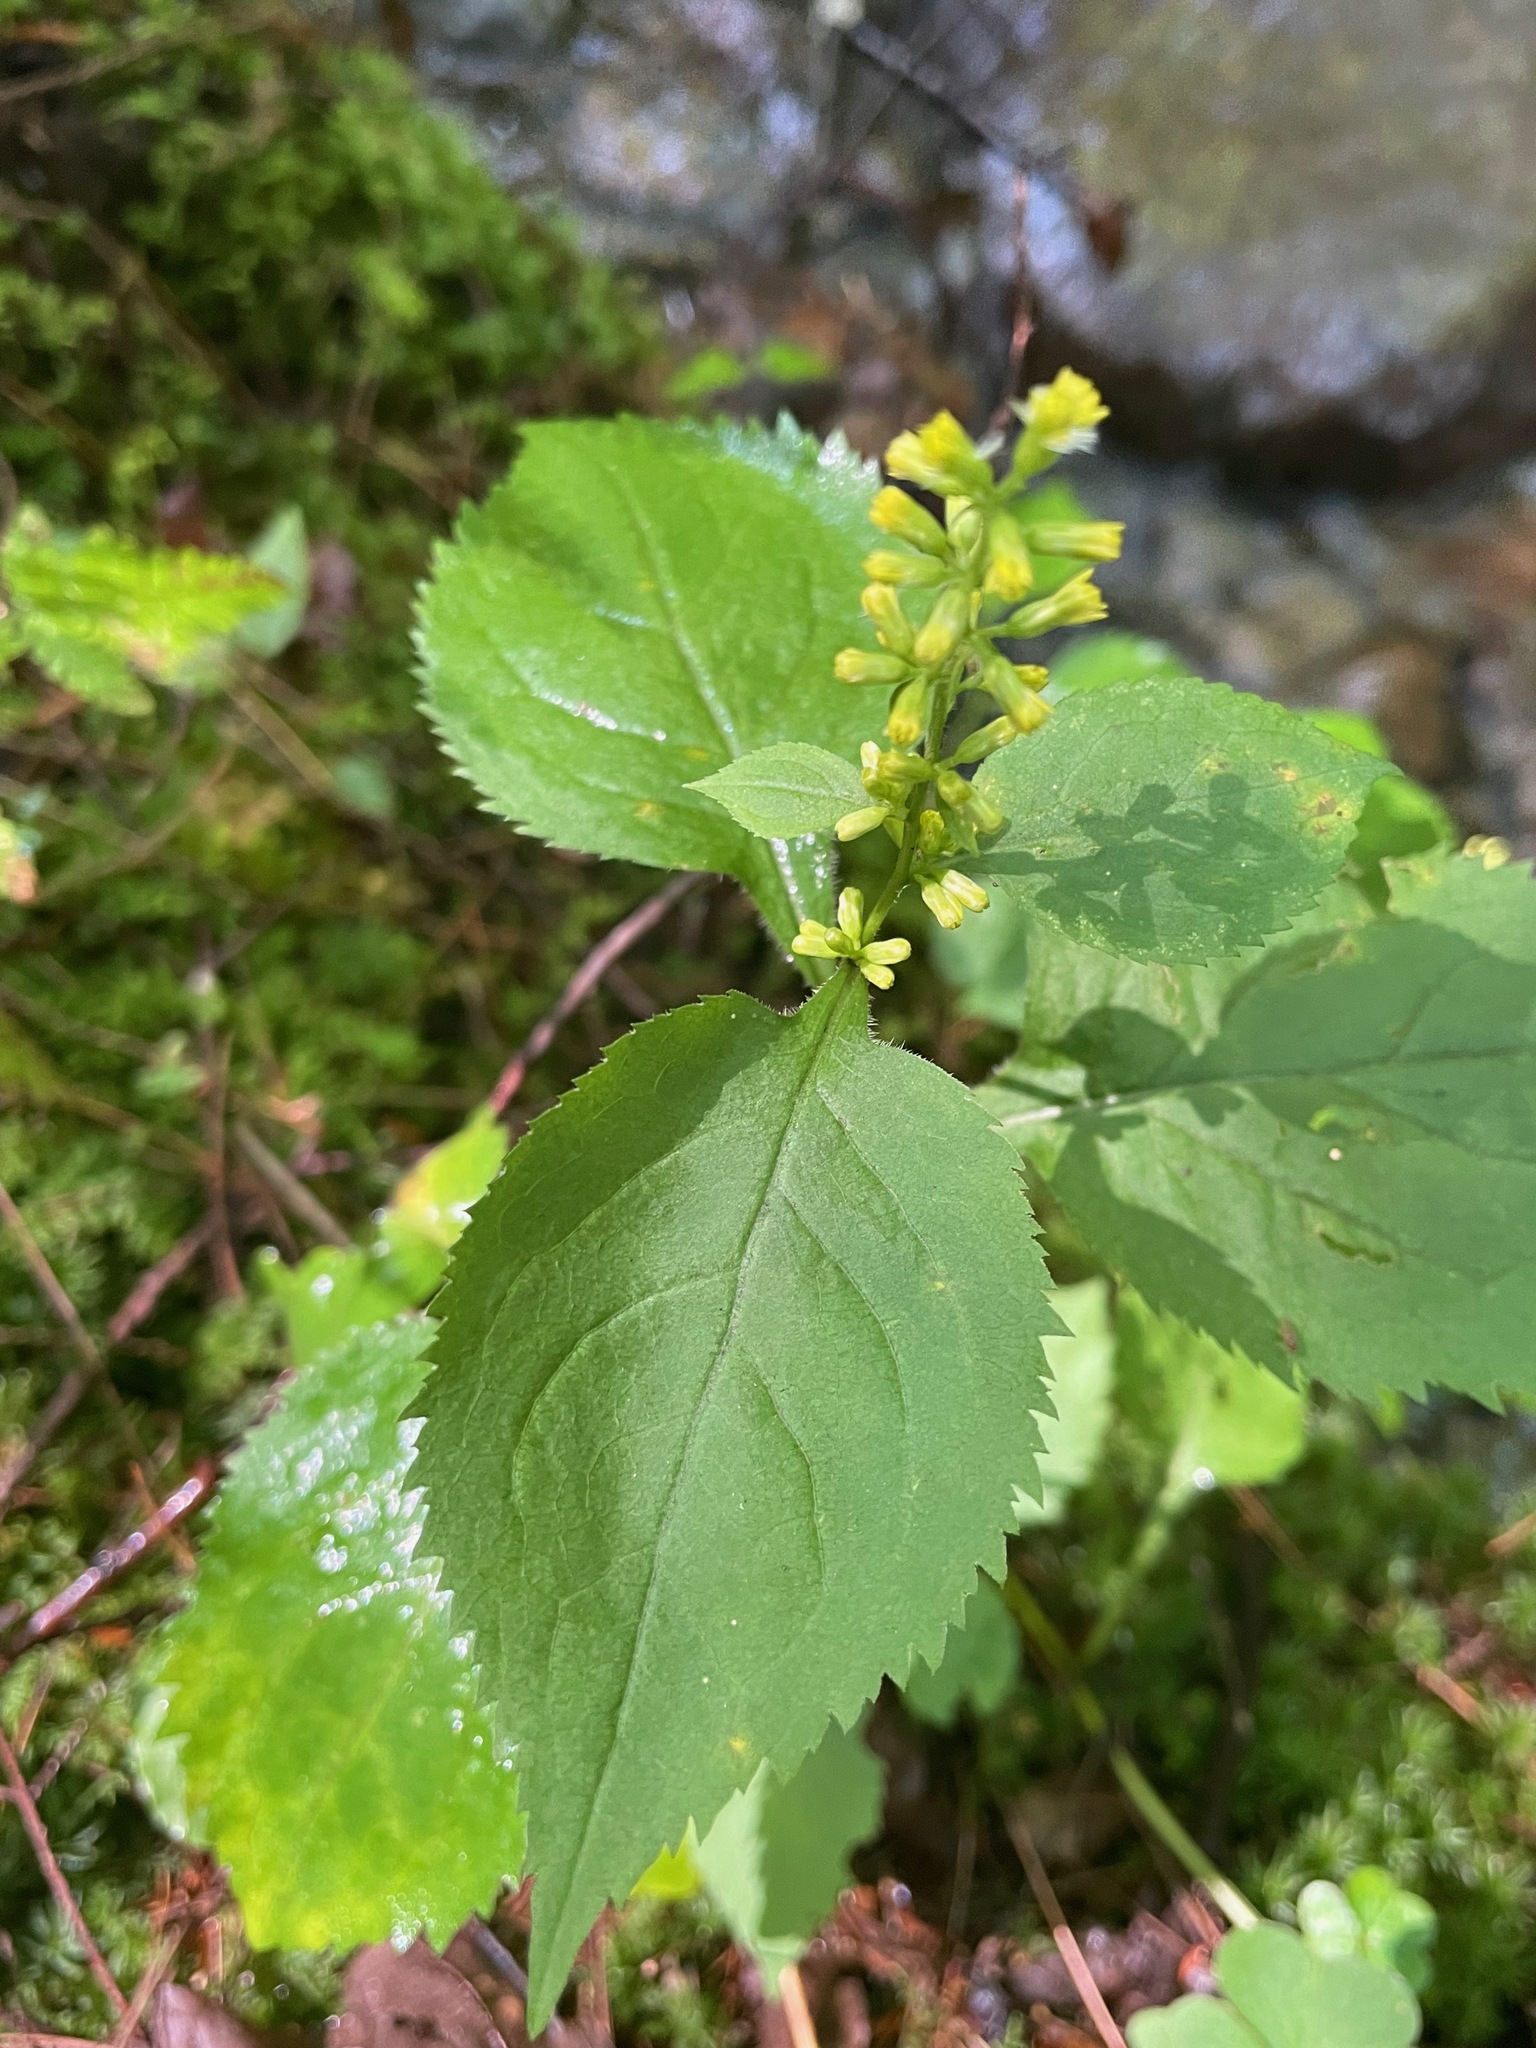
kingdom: Plantae
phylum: Tracheophyta
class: Magnoliopsida
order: Asterales
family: Asteraceae
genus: Solidago
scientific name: Solidago flexicaulis
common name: Zig-zag goldenrod
